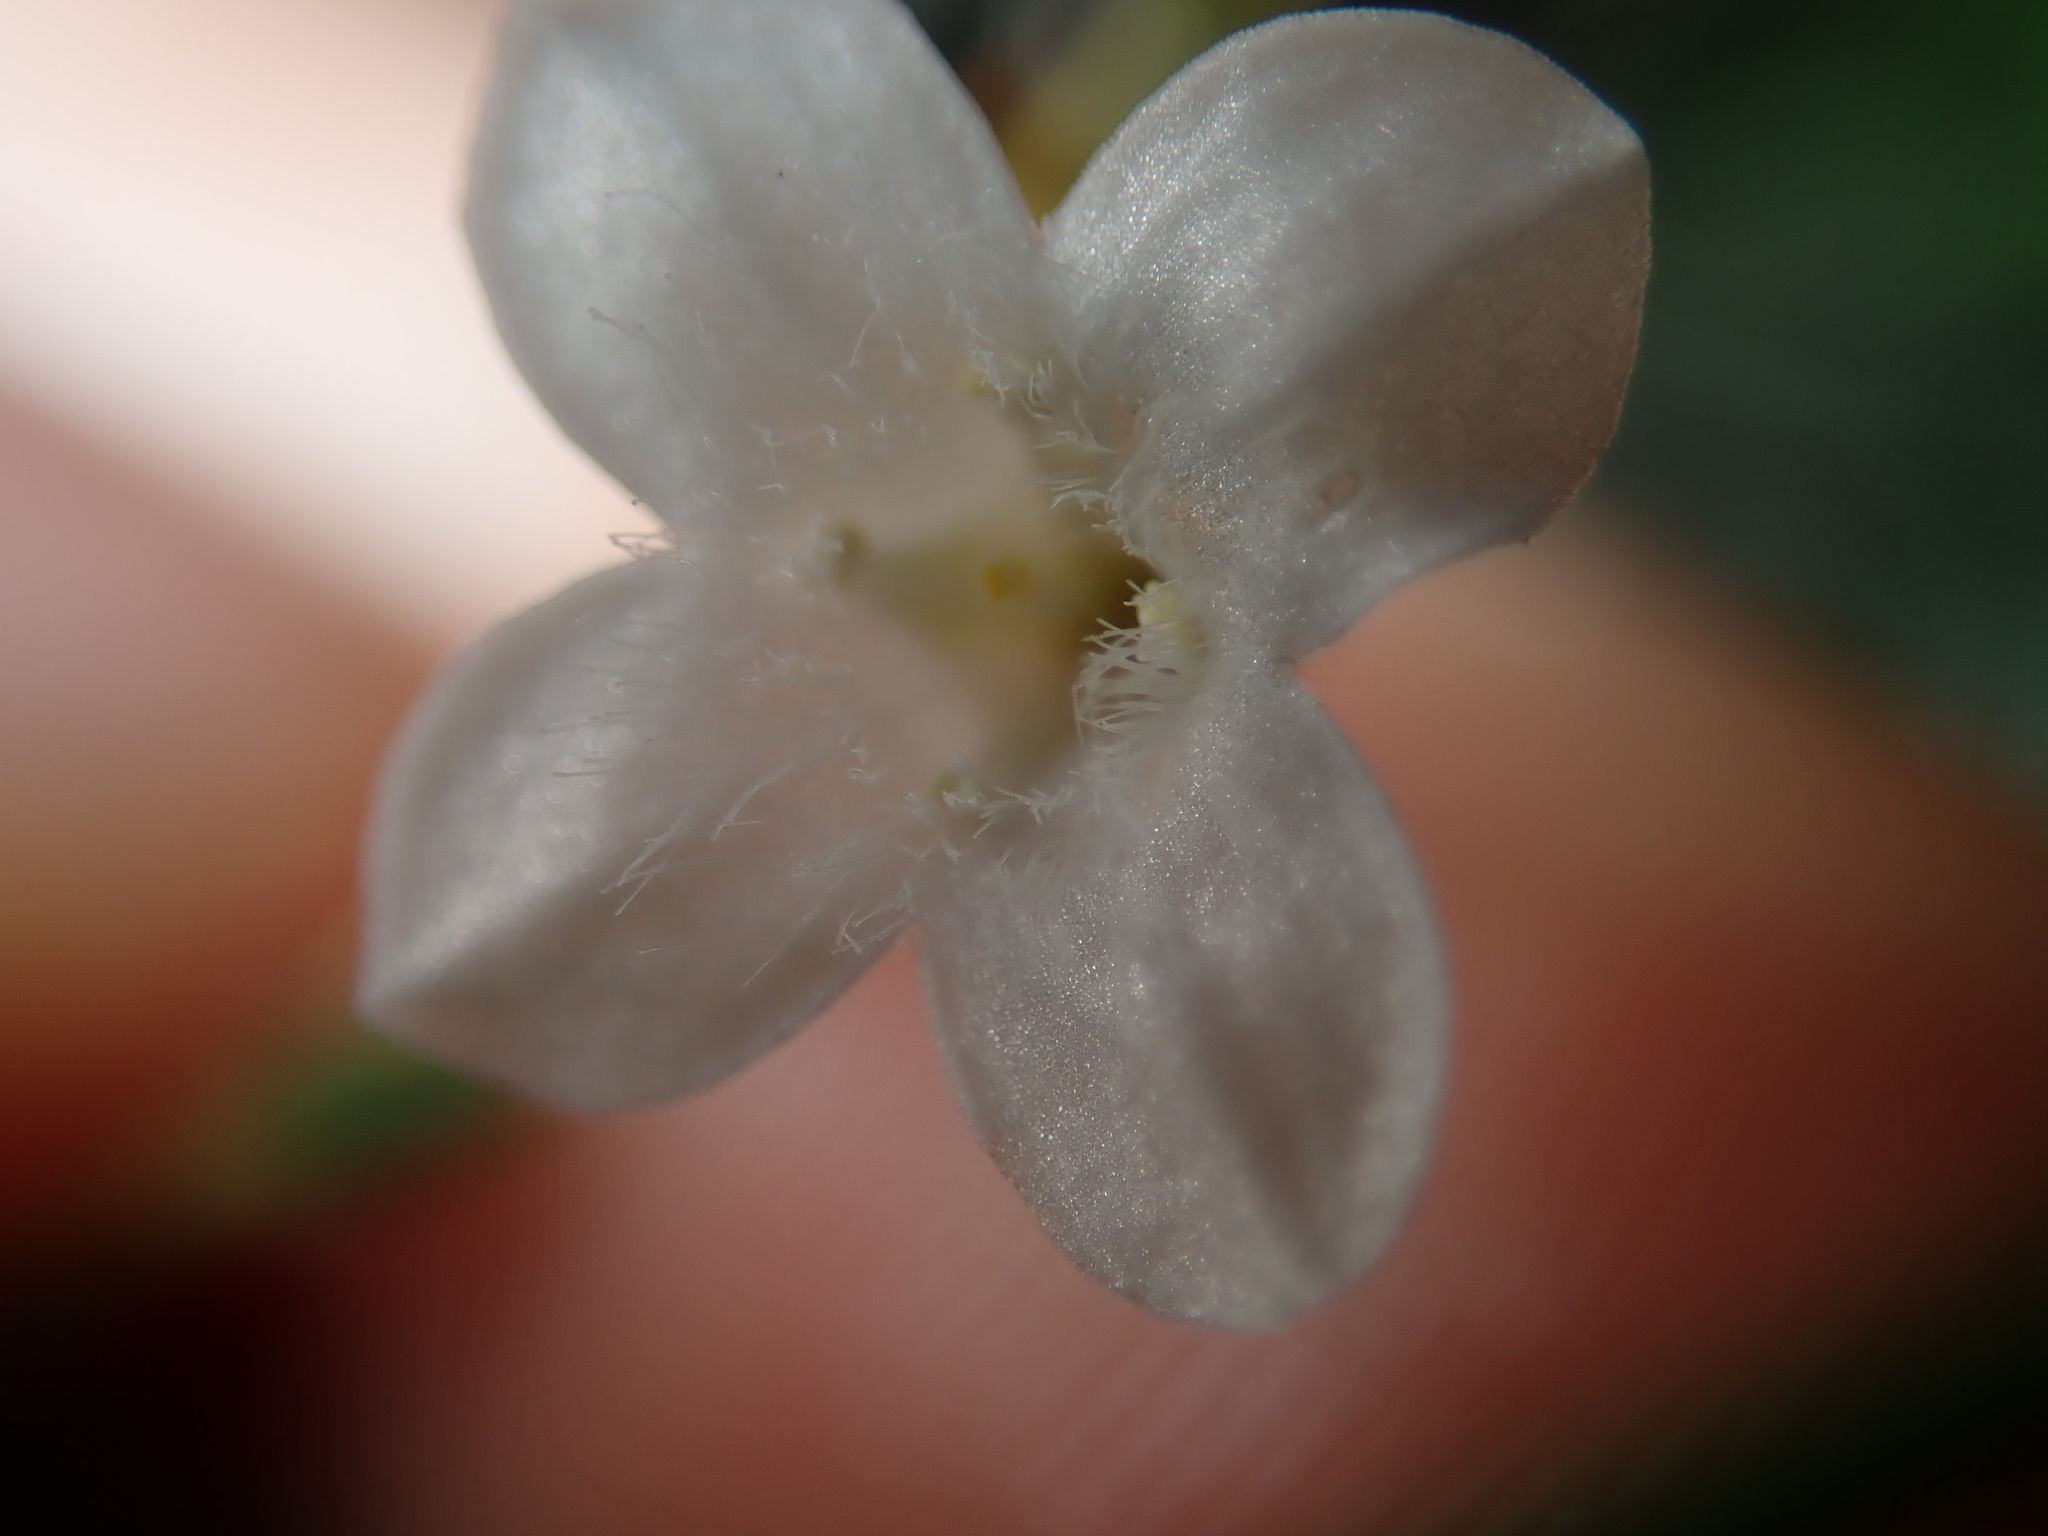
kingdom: Plantae
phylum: Tracheophyta
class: Magnoliopsida
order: Gentianales
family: Loganiaceae
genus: Mitrasacme
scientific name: Mitrasacme polymorpha
